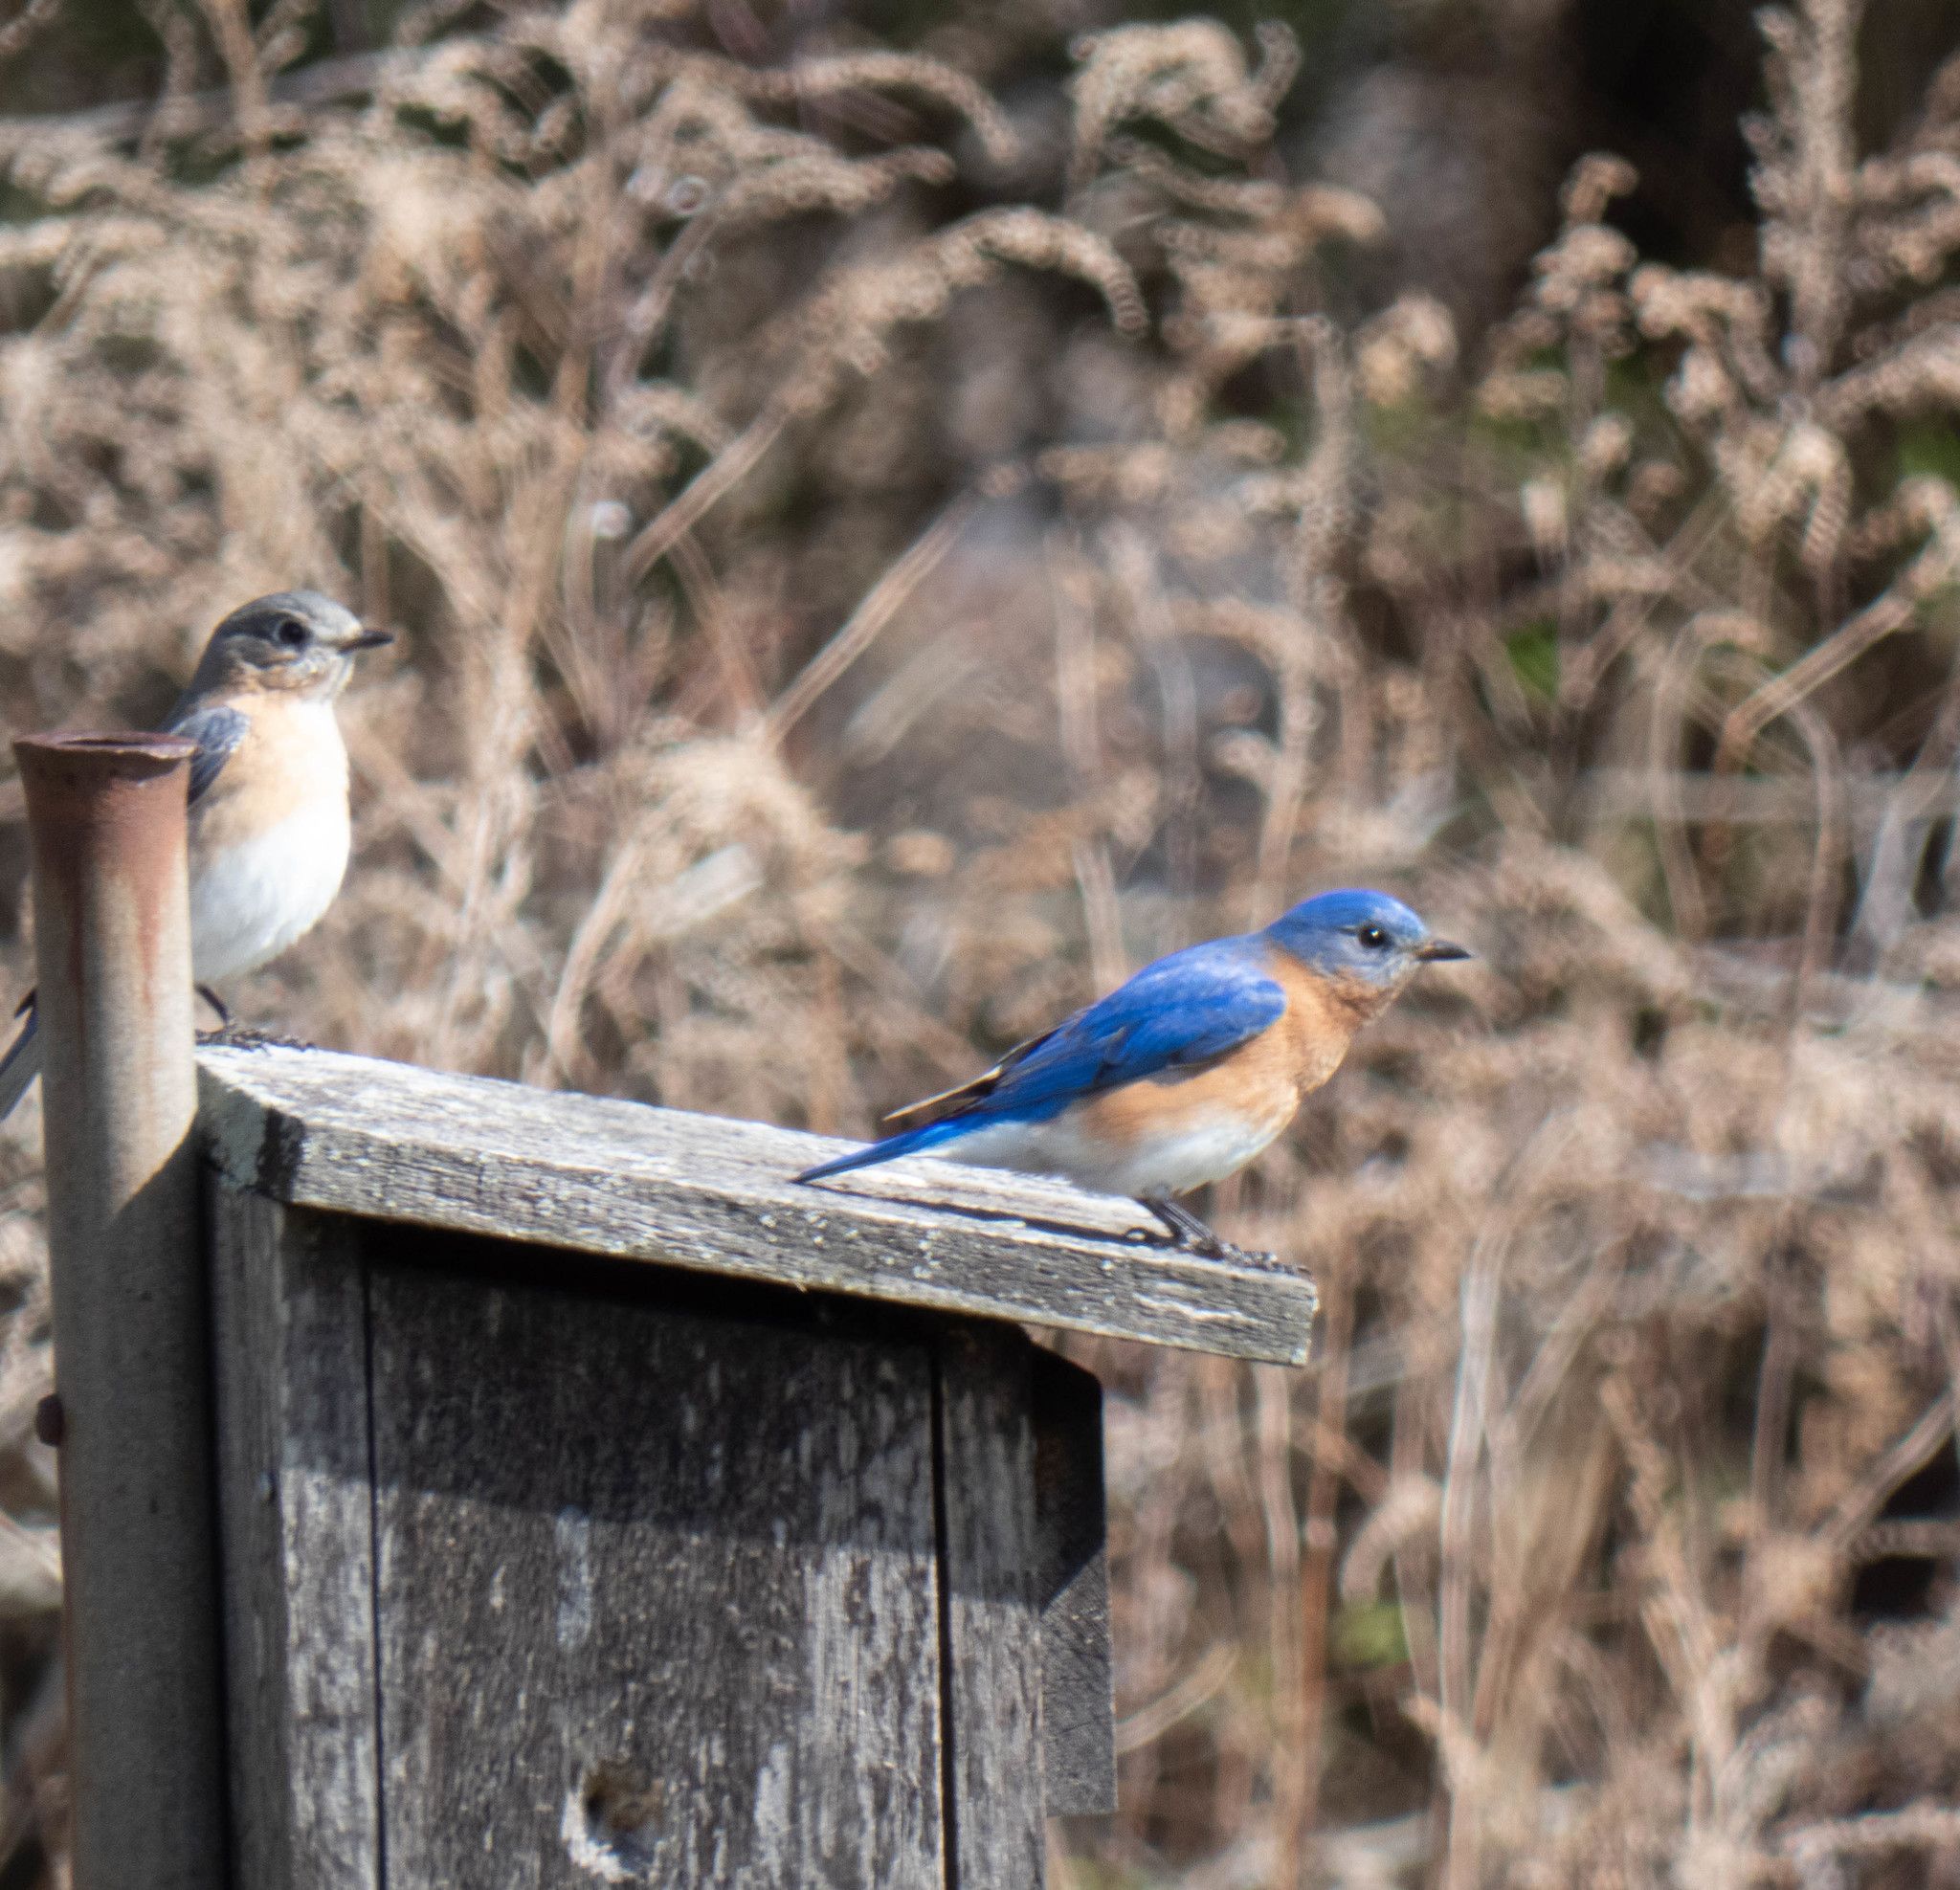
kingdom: Animalia
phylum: Chordata
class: Aves
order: Passeriformes
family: Turdidae
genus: Sialia
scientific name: Sialia sialis
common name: Eastern bluebird
